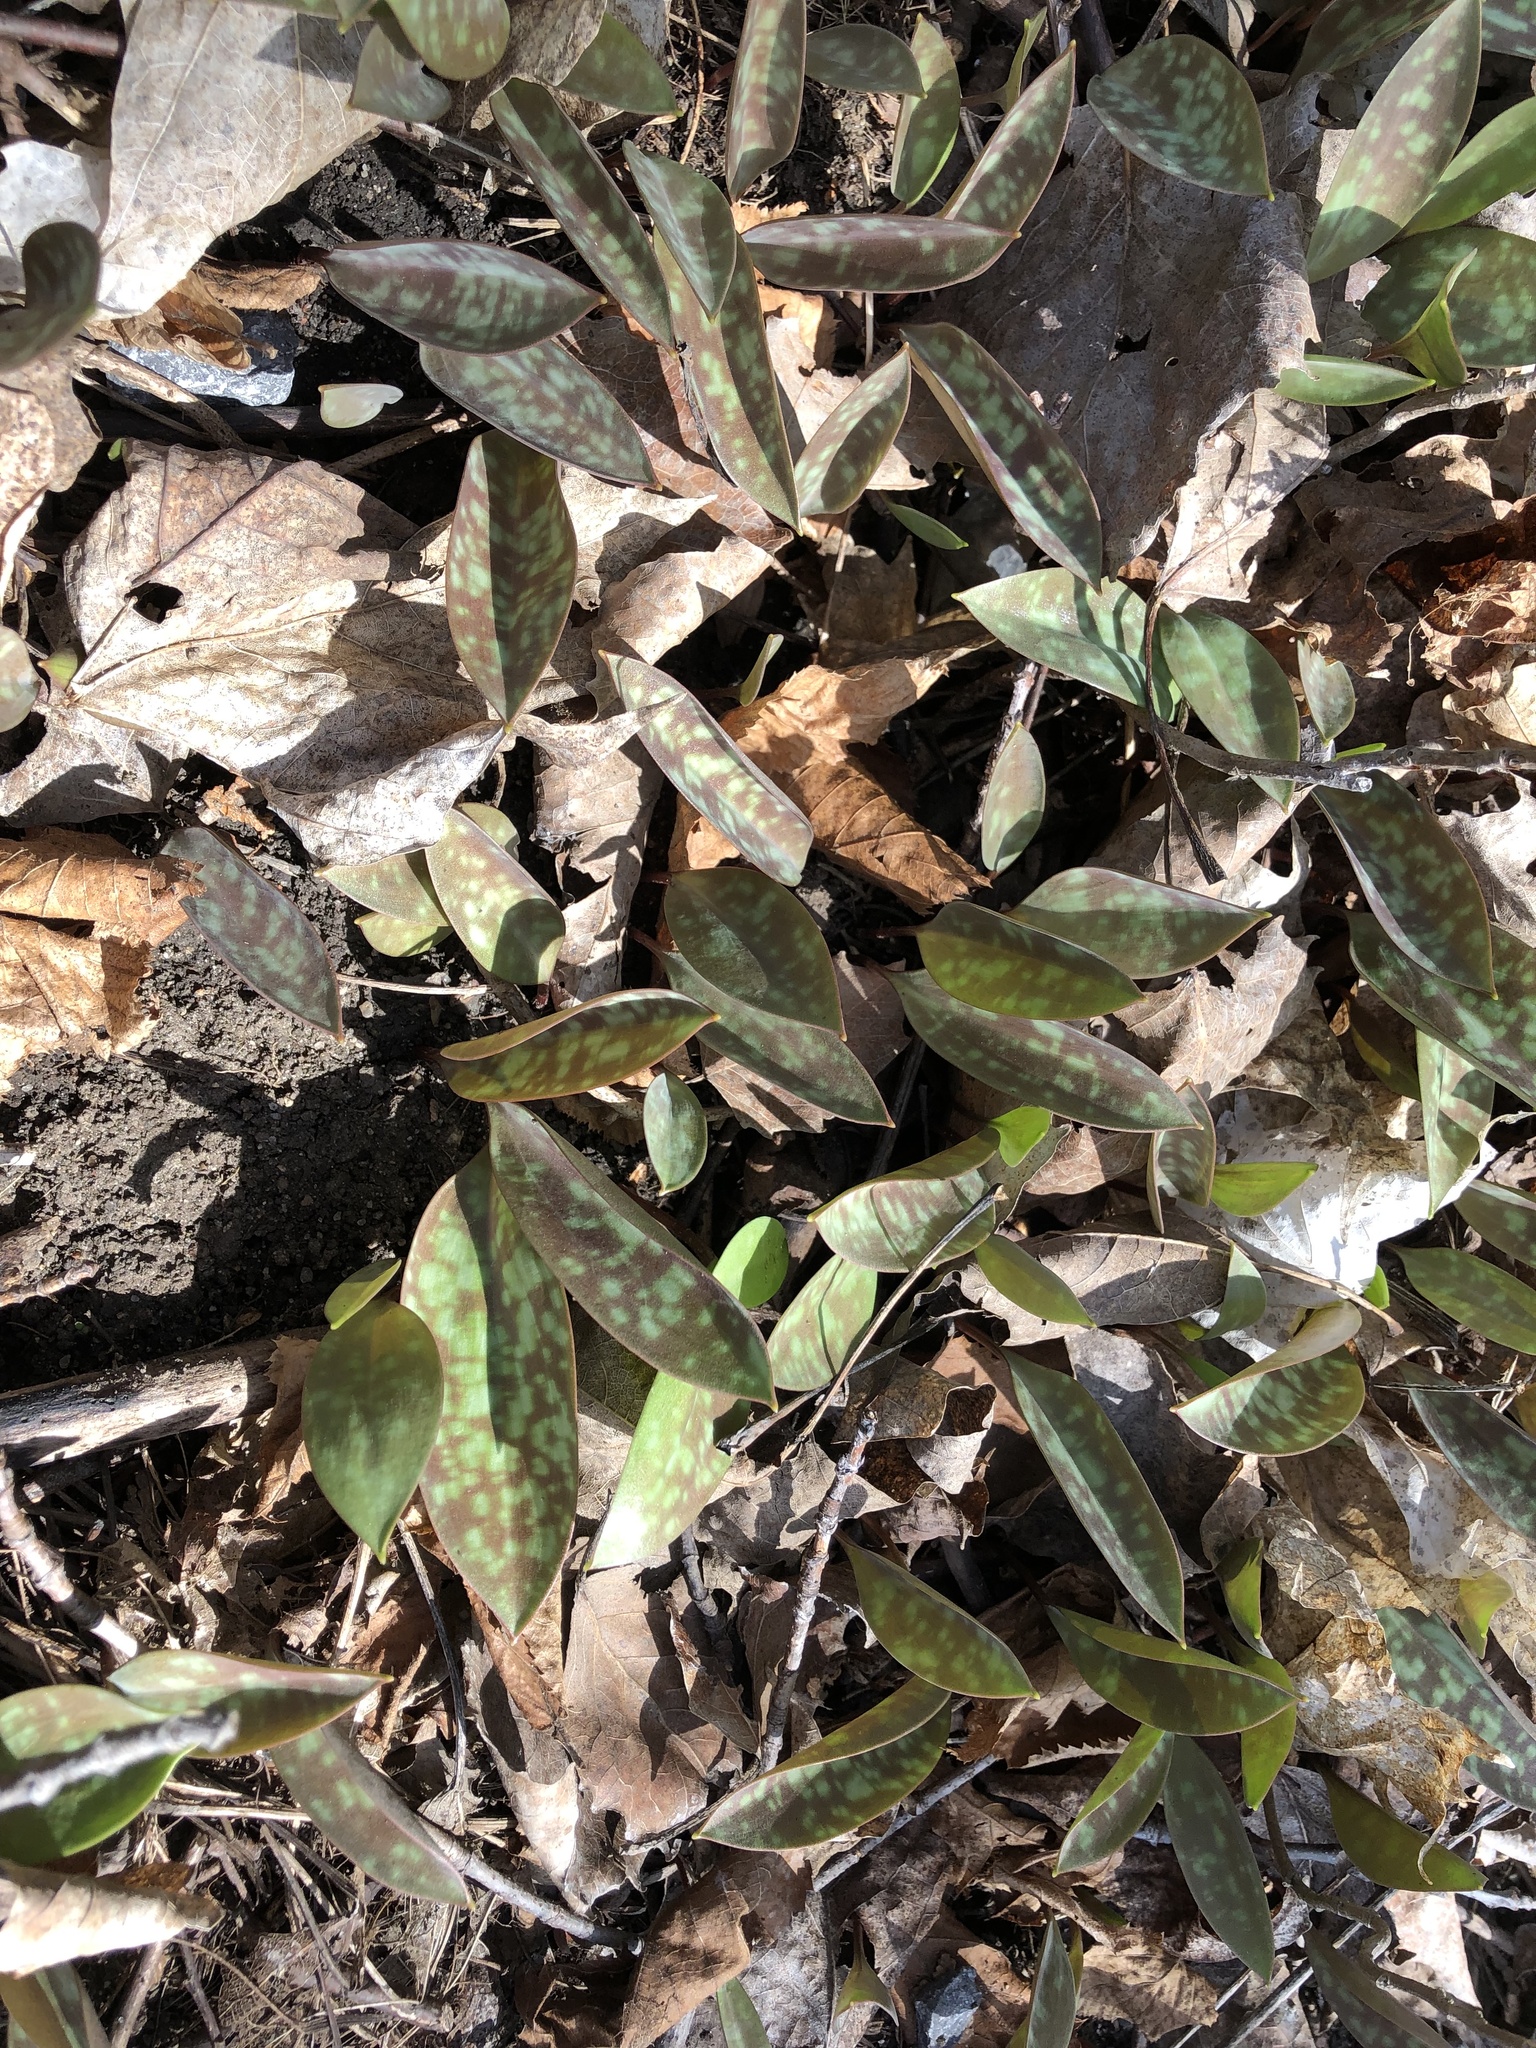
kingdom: Plantae
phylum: Tracheophyta
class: Liliopsida
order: Liliales
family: Liliaceae
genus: Erythronium
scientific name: Erythronium americanum
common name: Yellow adder's-tongue
